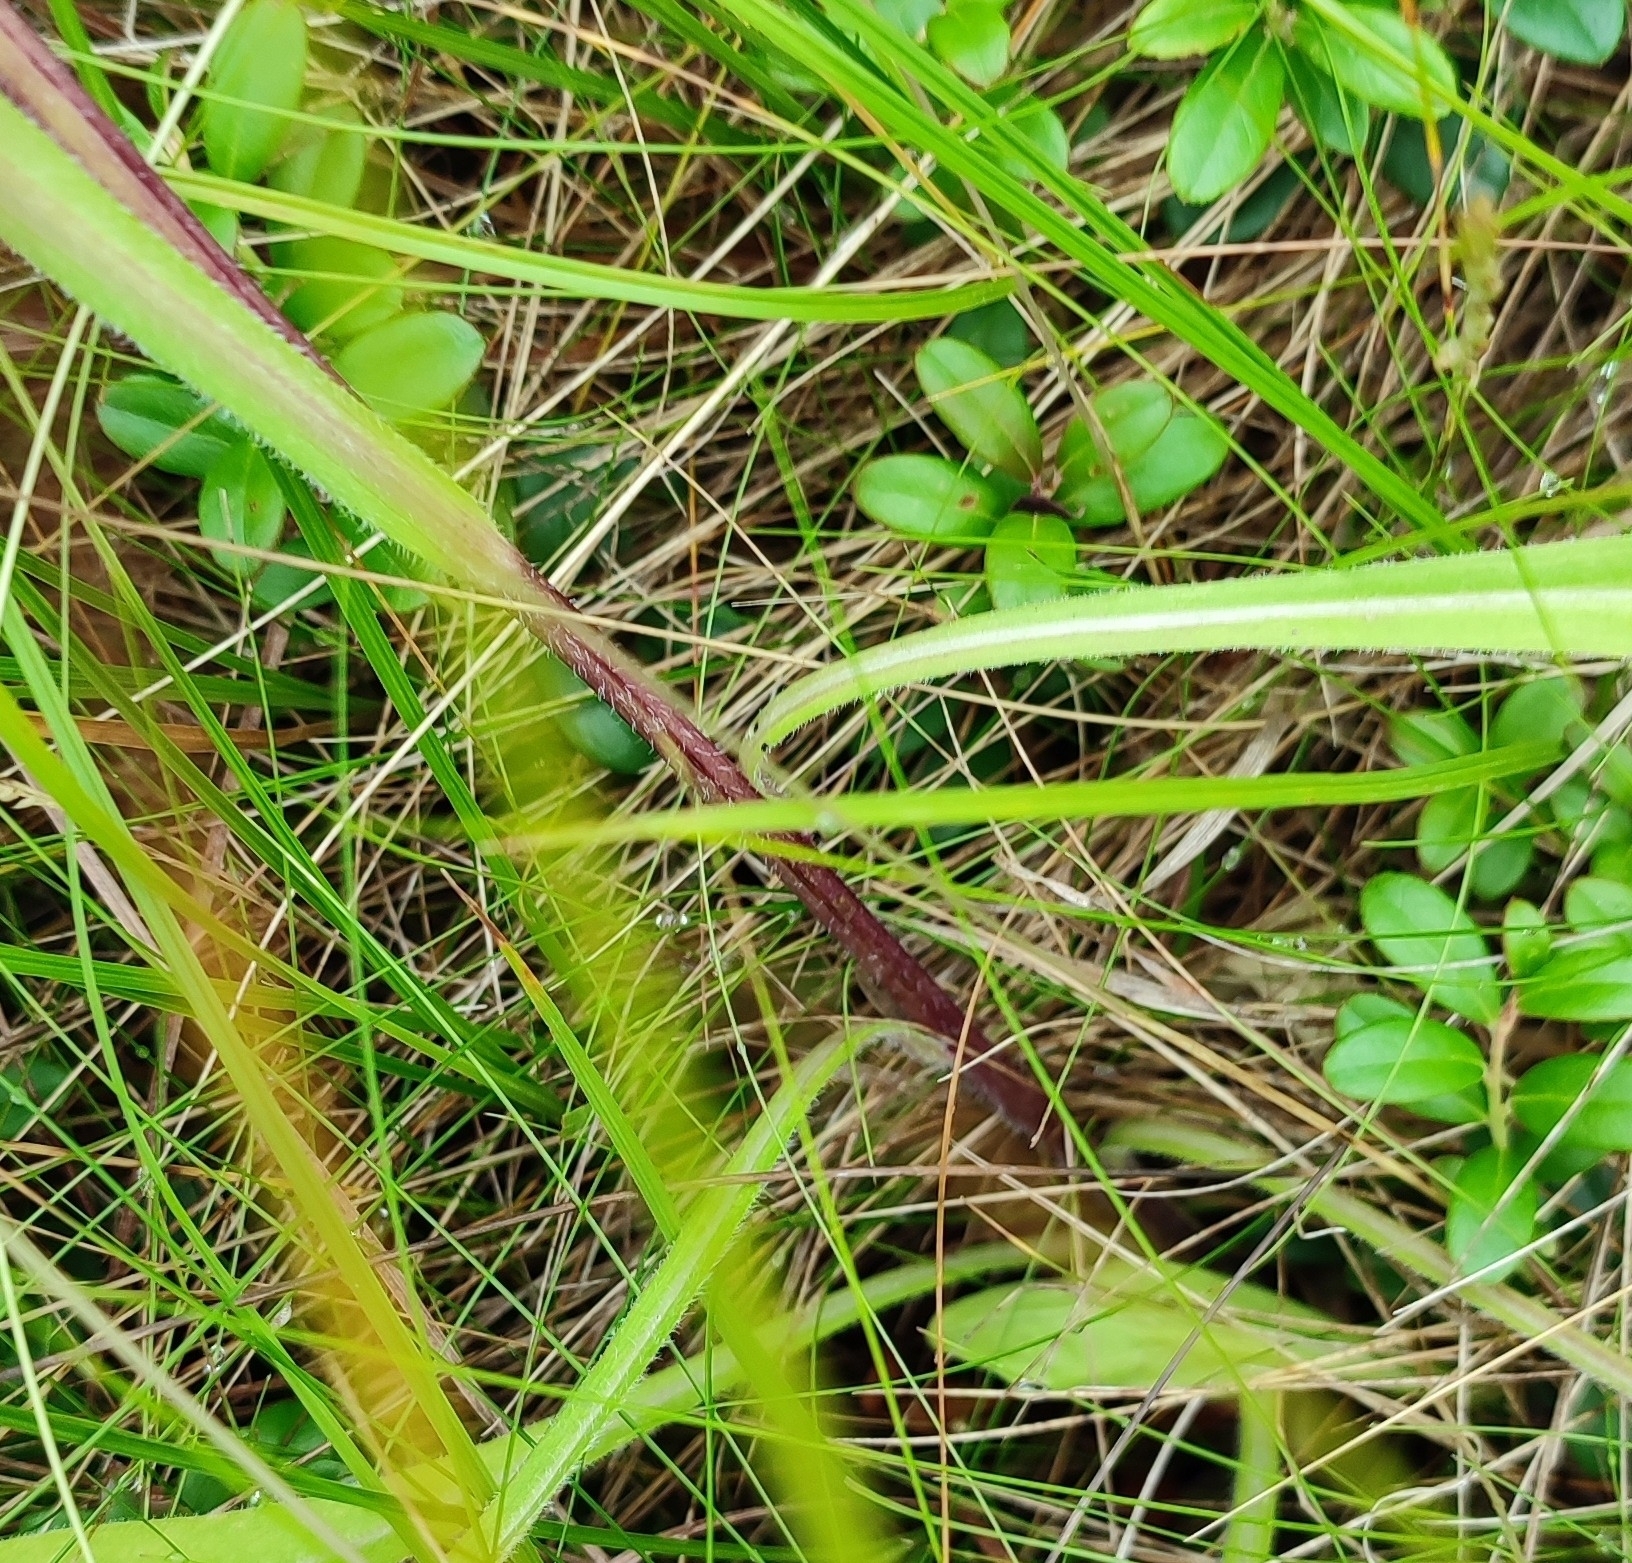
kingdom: Plantae
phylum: Tracheophyta
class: Magnoliopsida
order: Asterales
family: Asteraceae
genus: Erigeron
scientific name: Erigeron acris
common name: Blue fleabane
